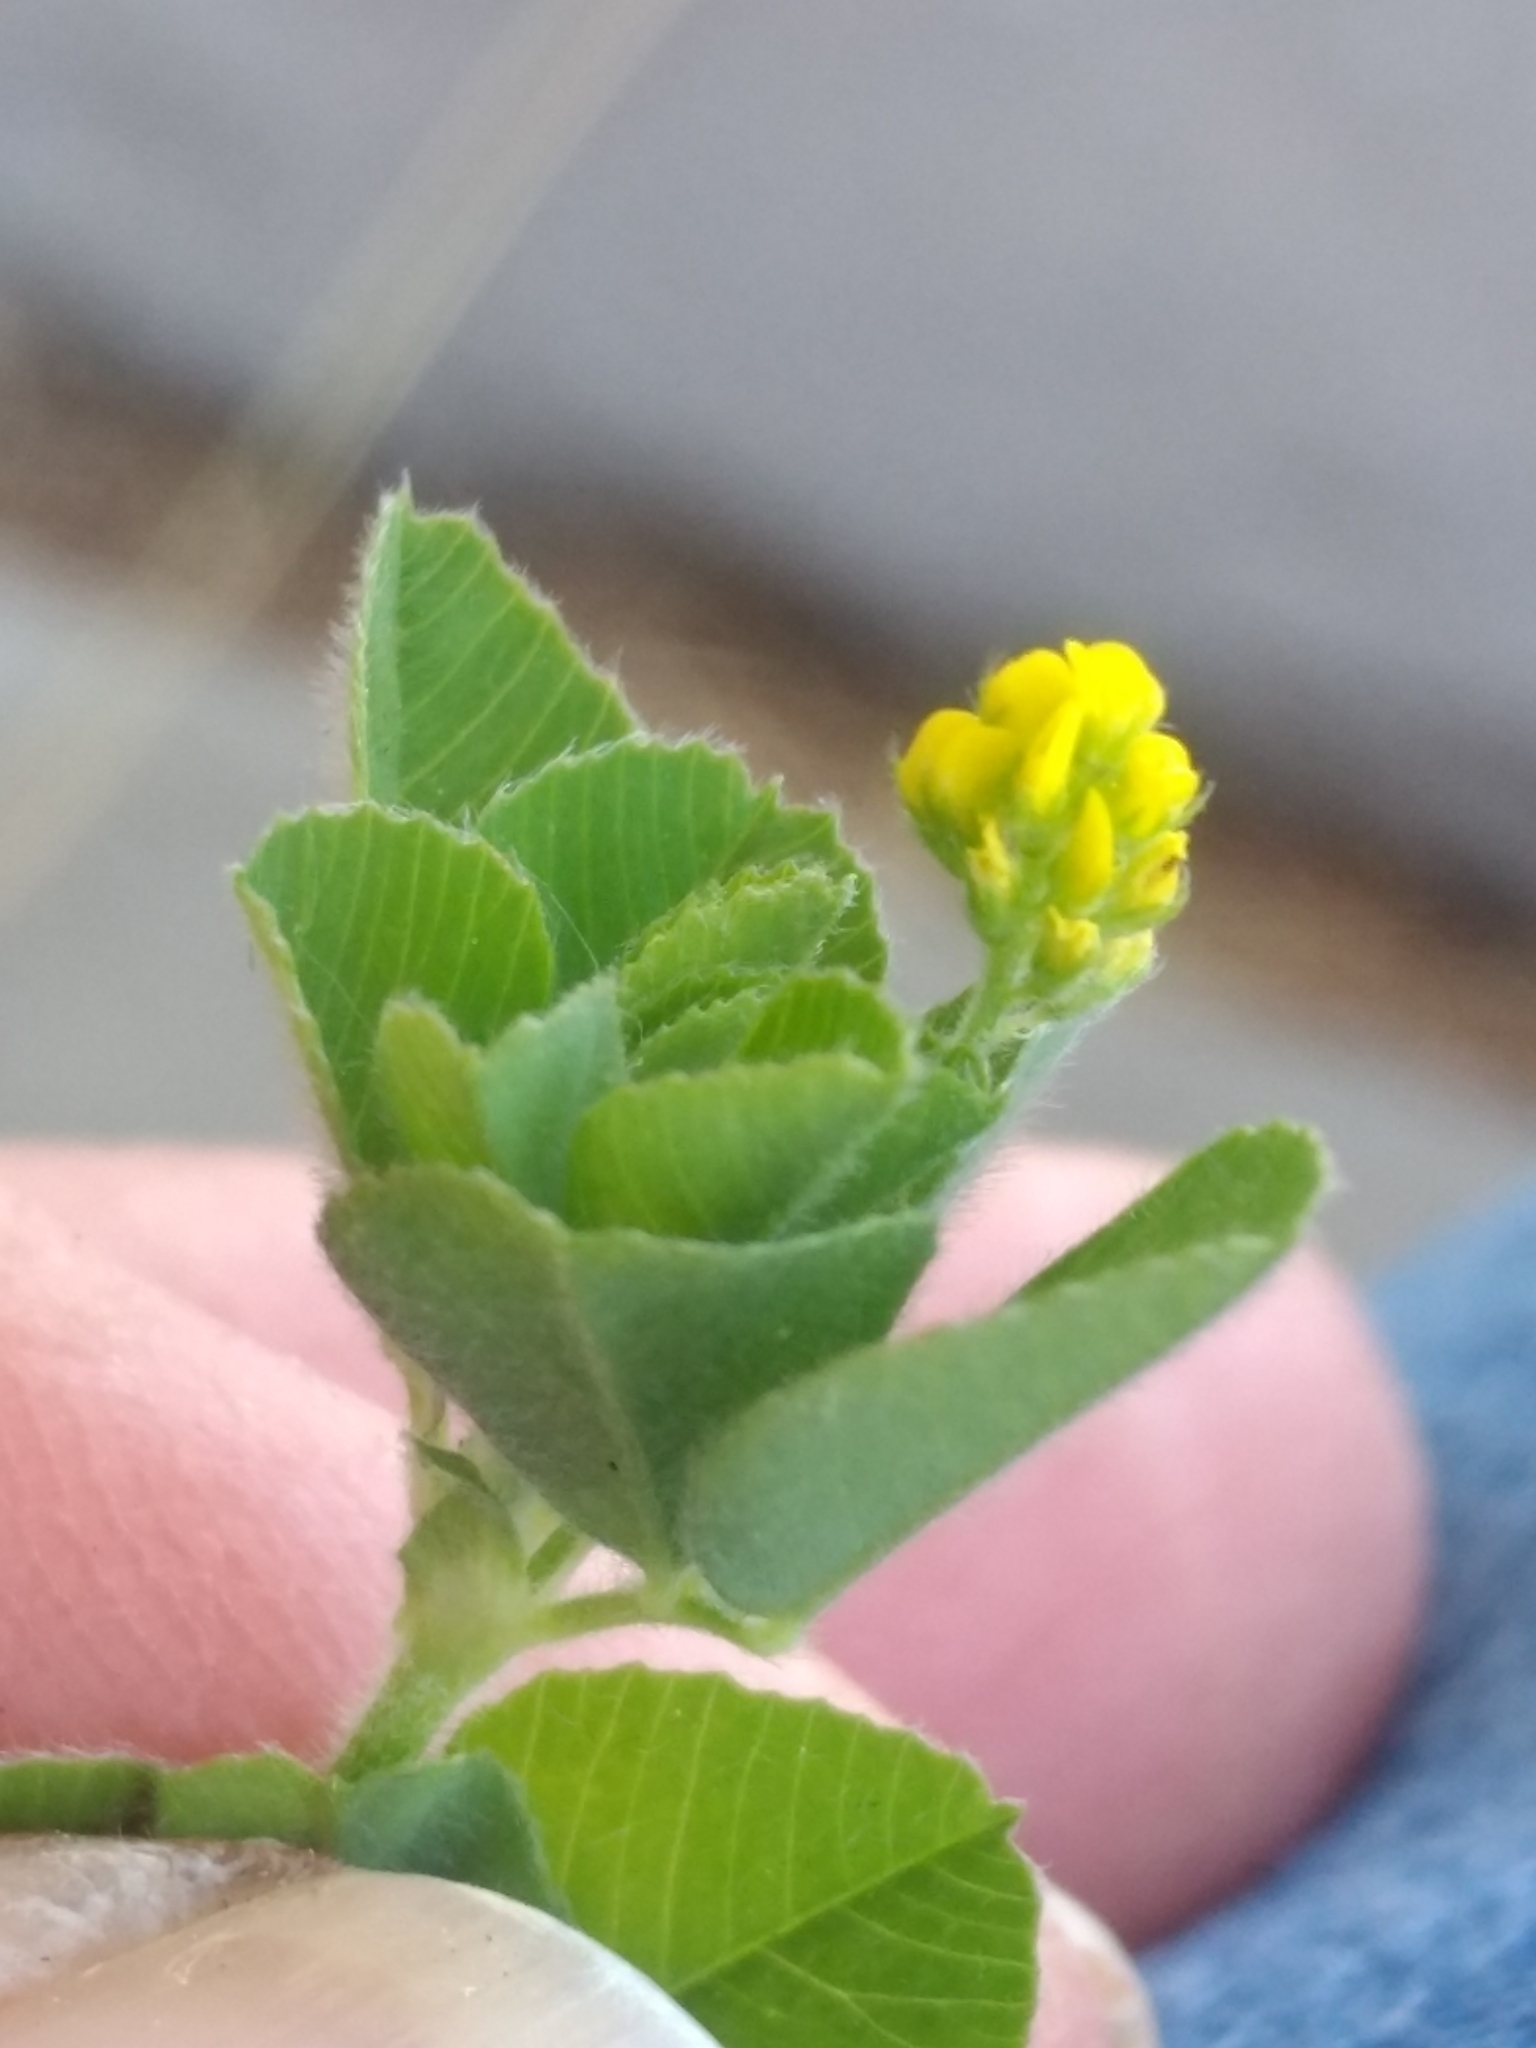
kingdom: Plantae
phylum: Tracheophyta
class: Magnoliopsida
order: Fabales
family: Fabaceae
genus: Medicago
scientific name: Medicago lupulina
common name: Black medick
